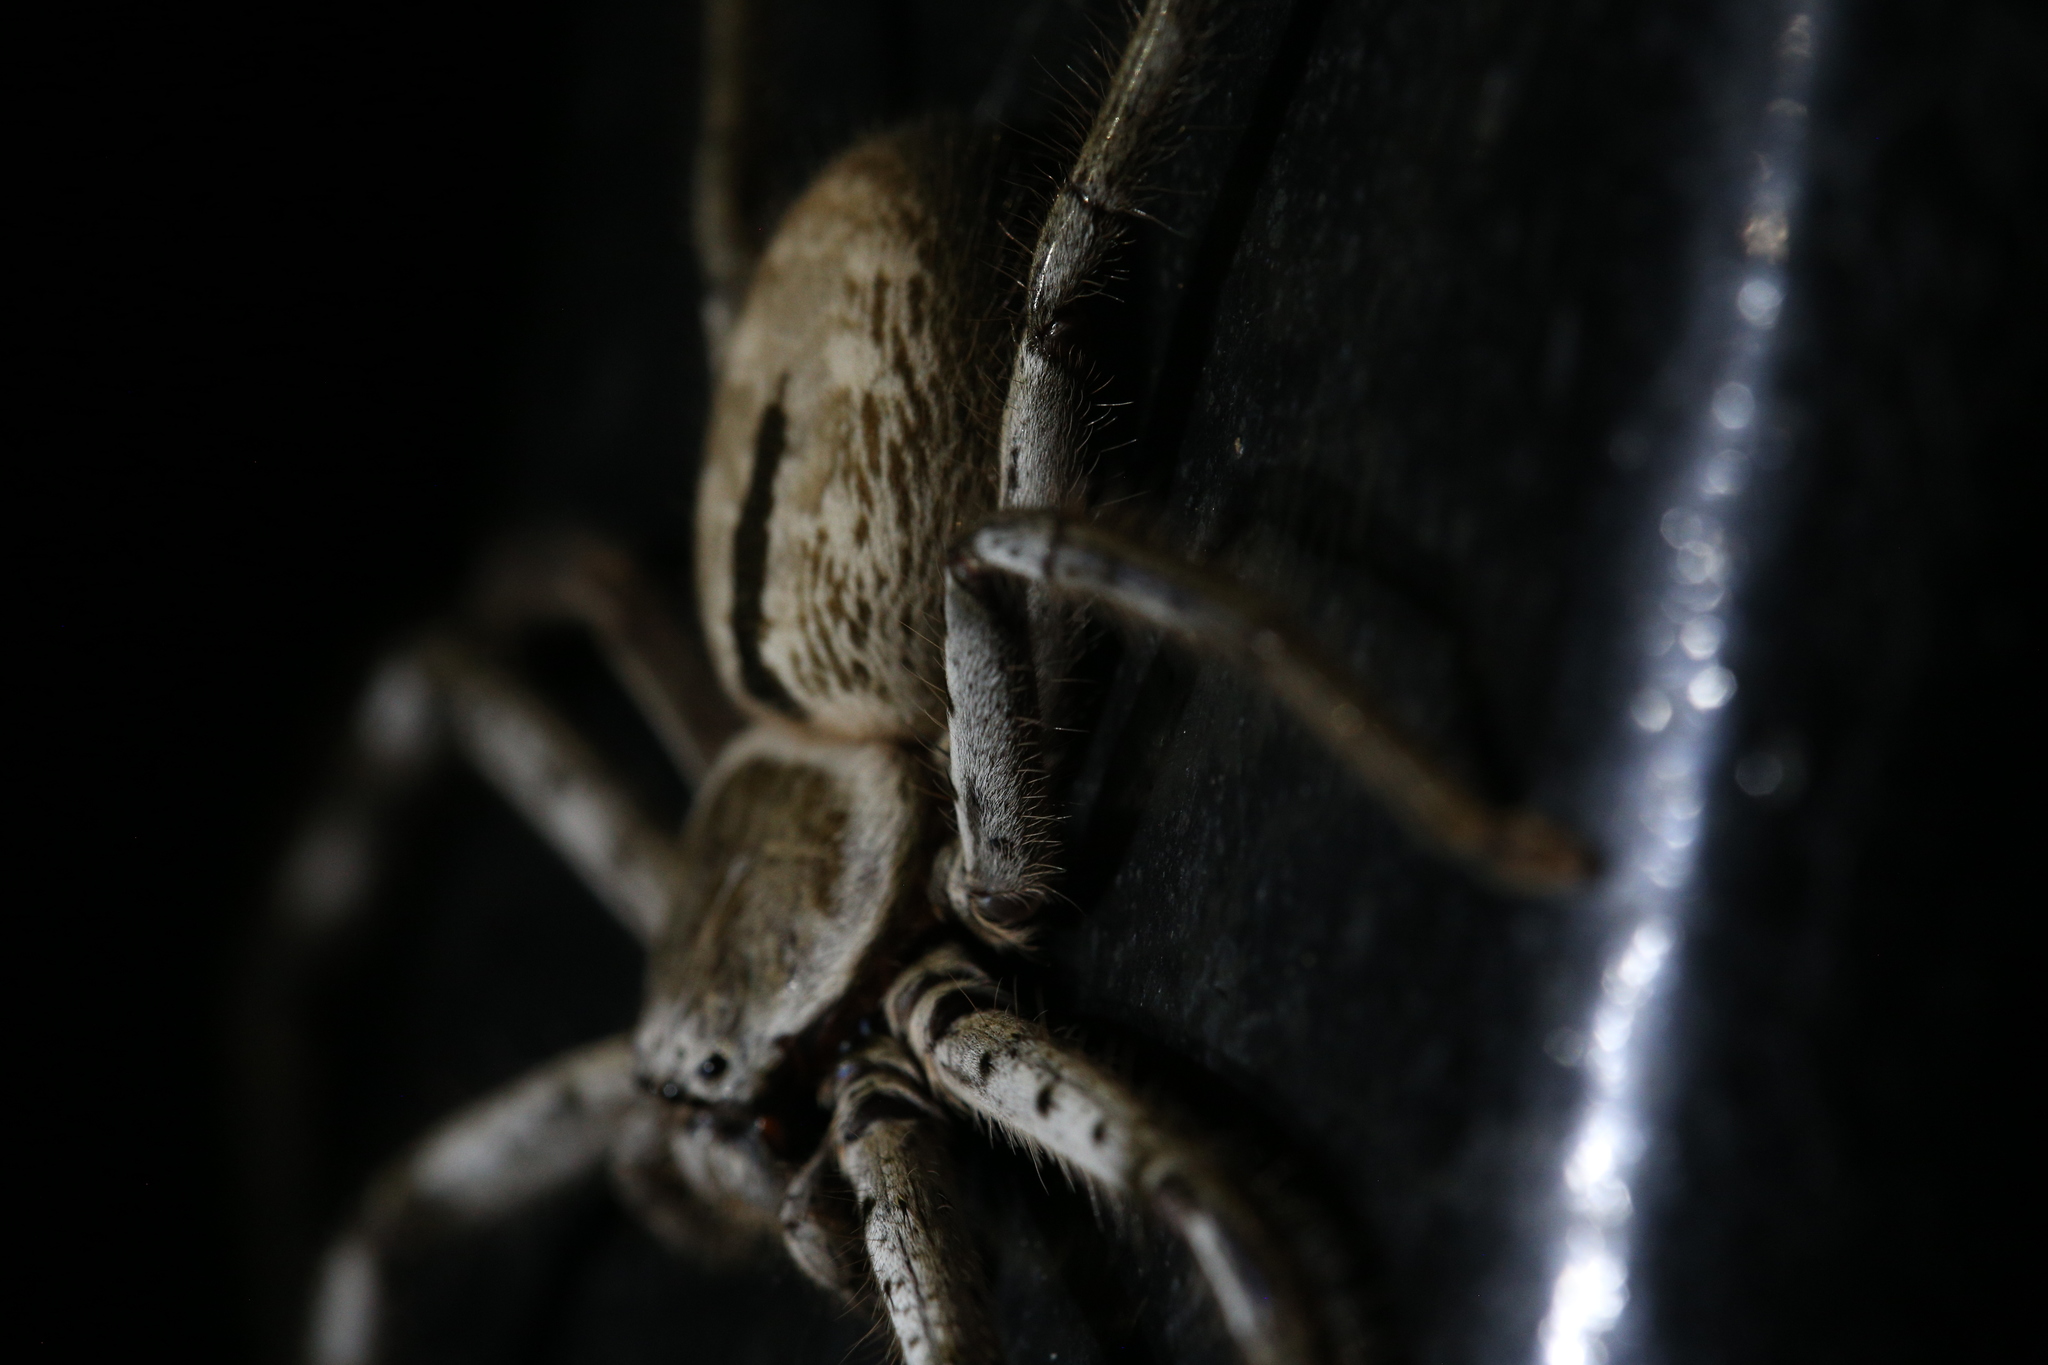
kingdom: Animalia
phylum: Arthropoda
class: Arachnida
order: Araneae
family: Sparassidae
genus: Holconia
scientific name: Holconia immanis
